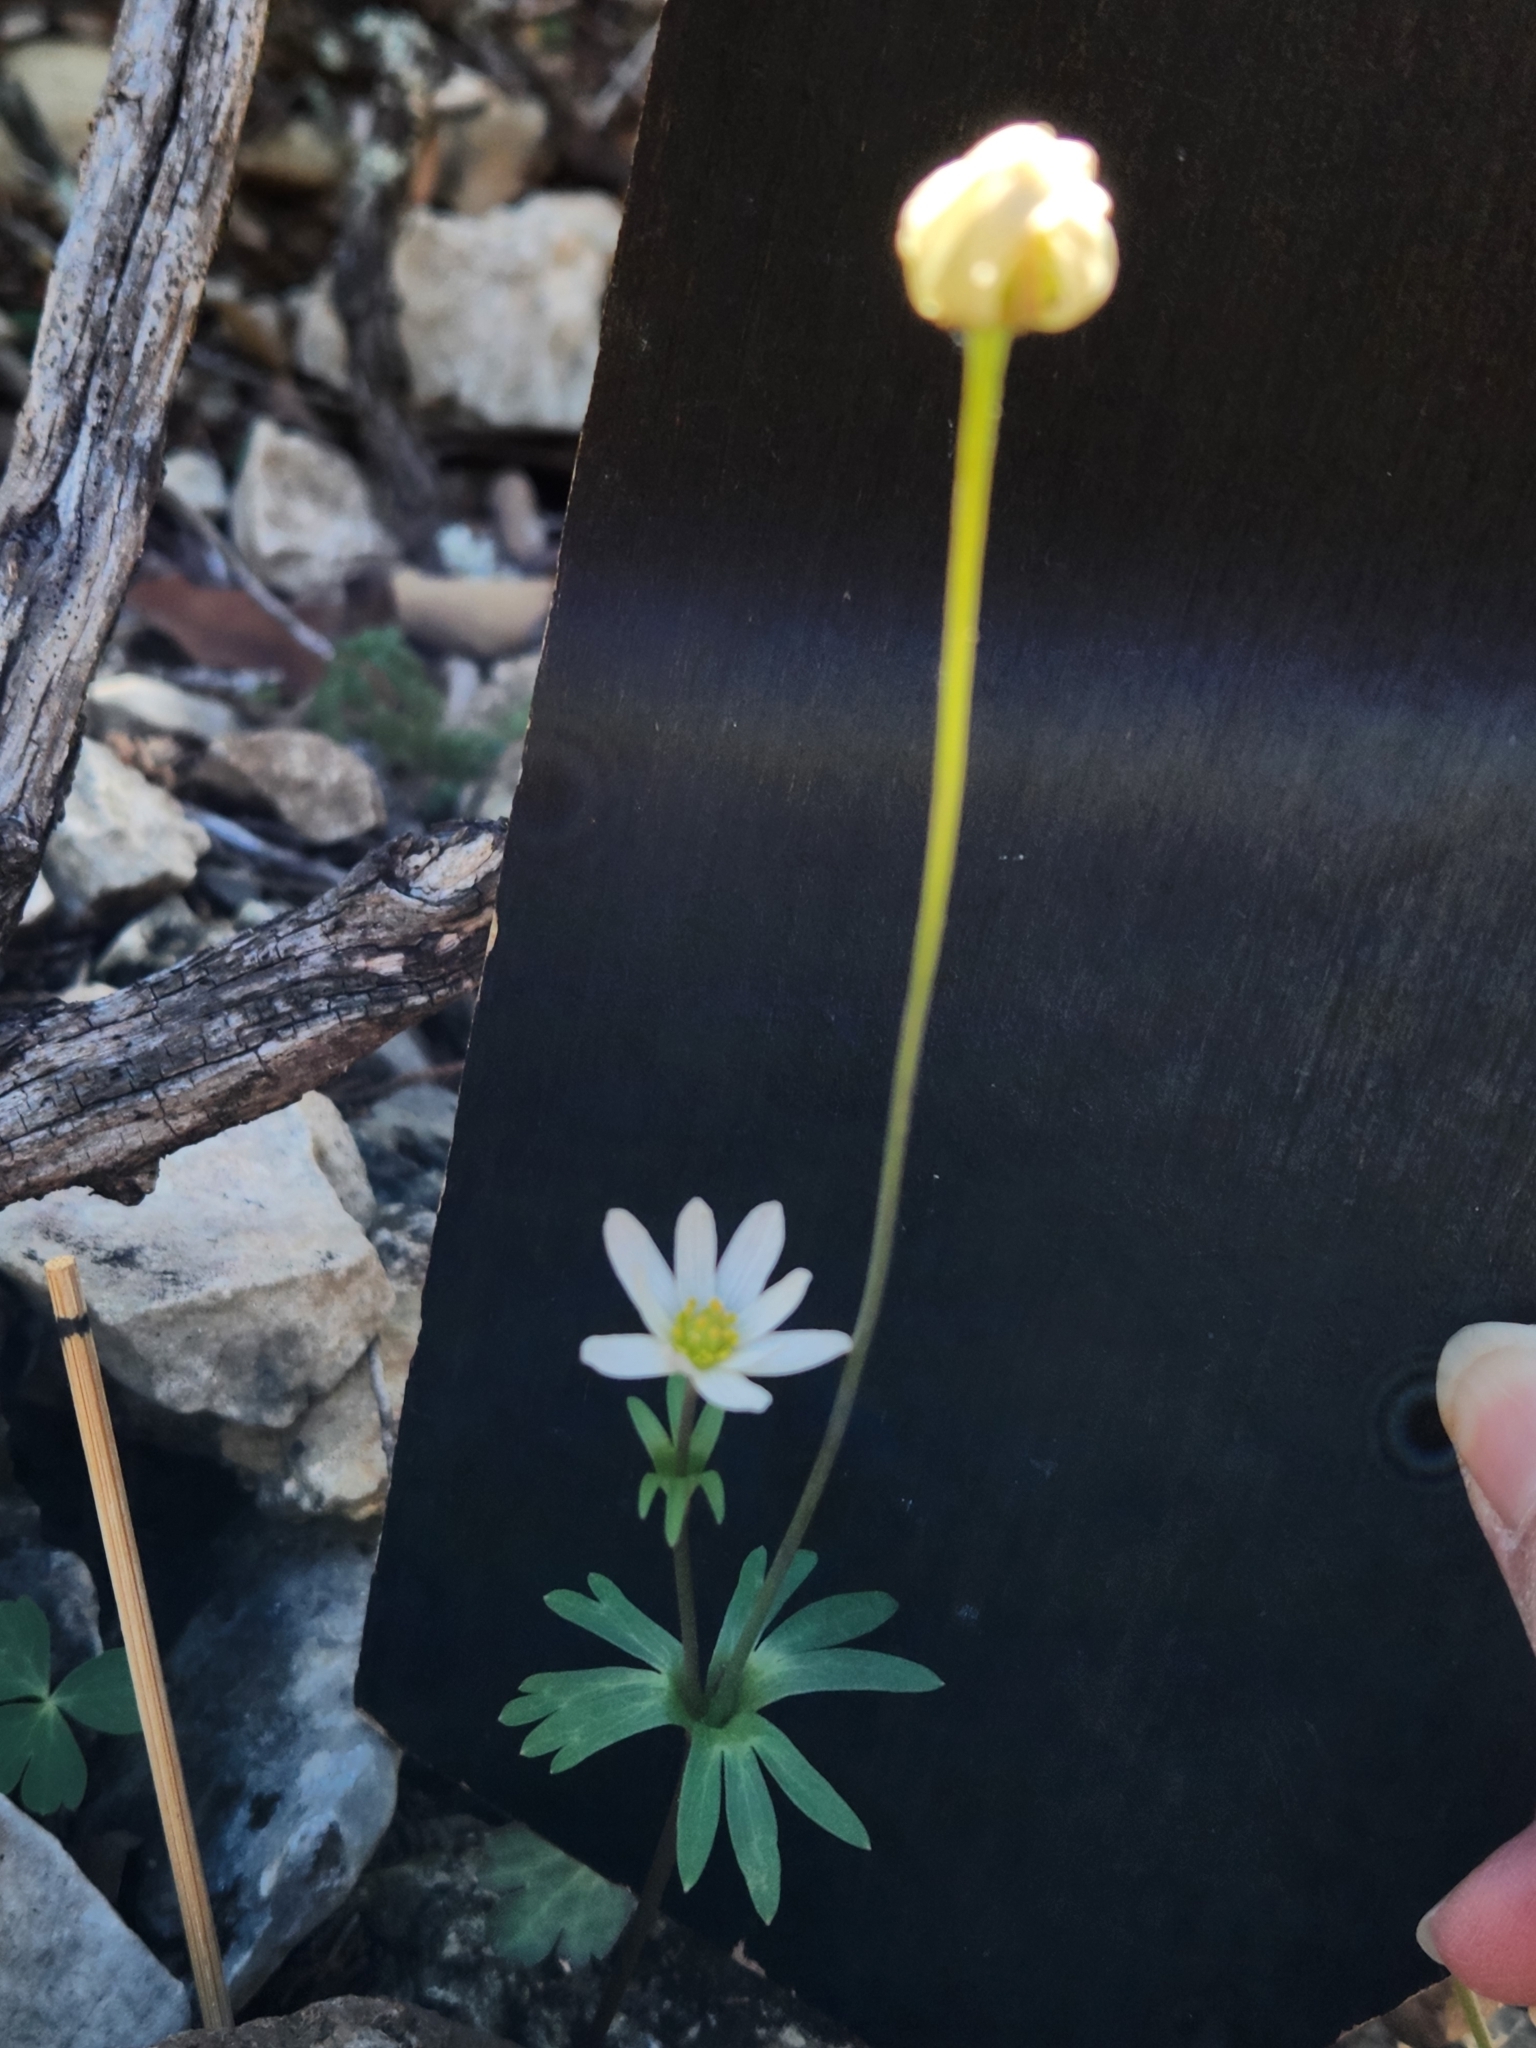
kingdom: Plantae
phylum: Tracheophyta
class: Magnoliopsida
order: Ranunculales
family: Ranunculaceae
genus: Anemone
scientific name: Anemone edwardsiana
